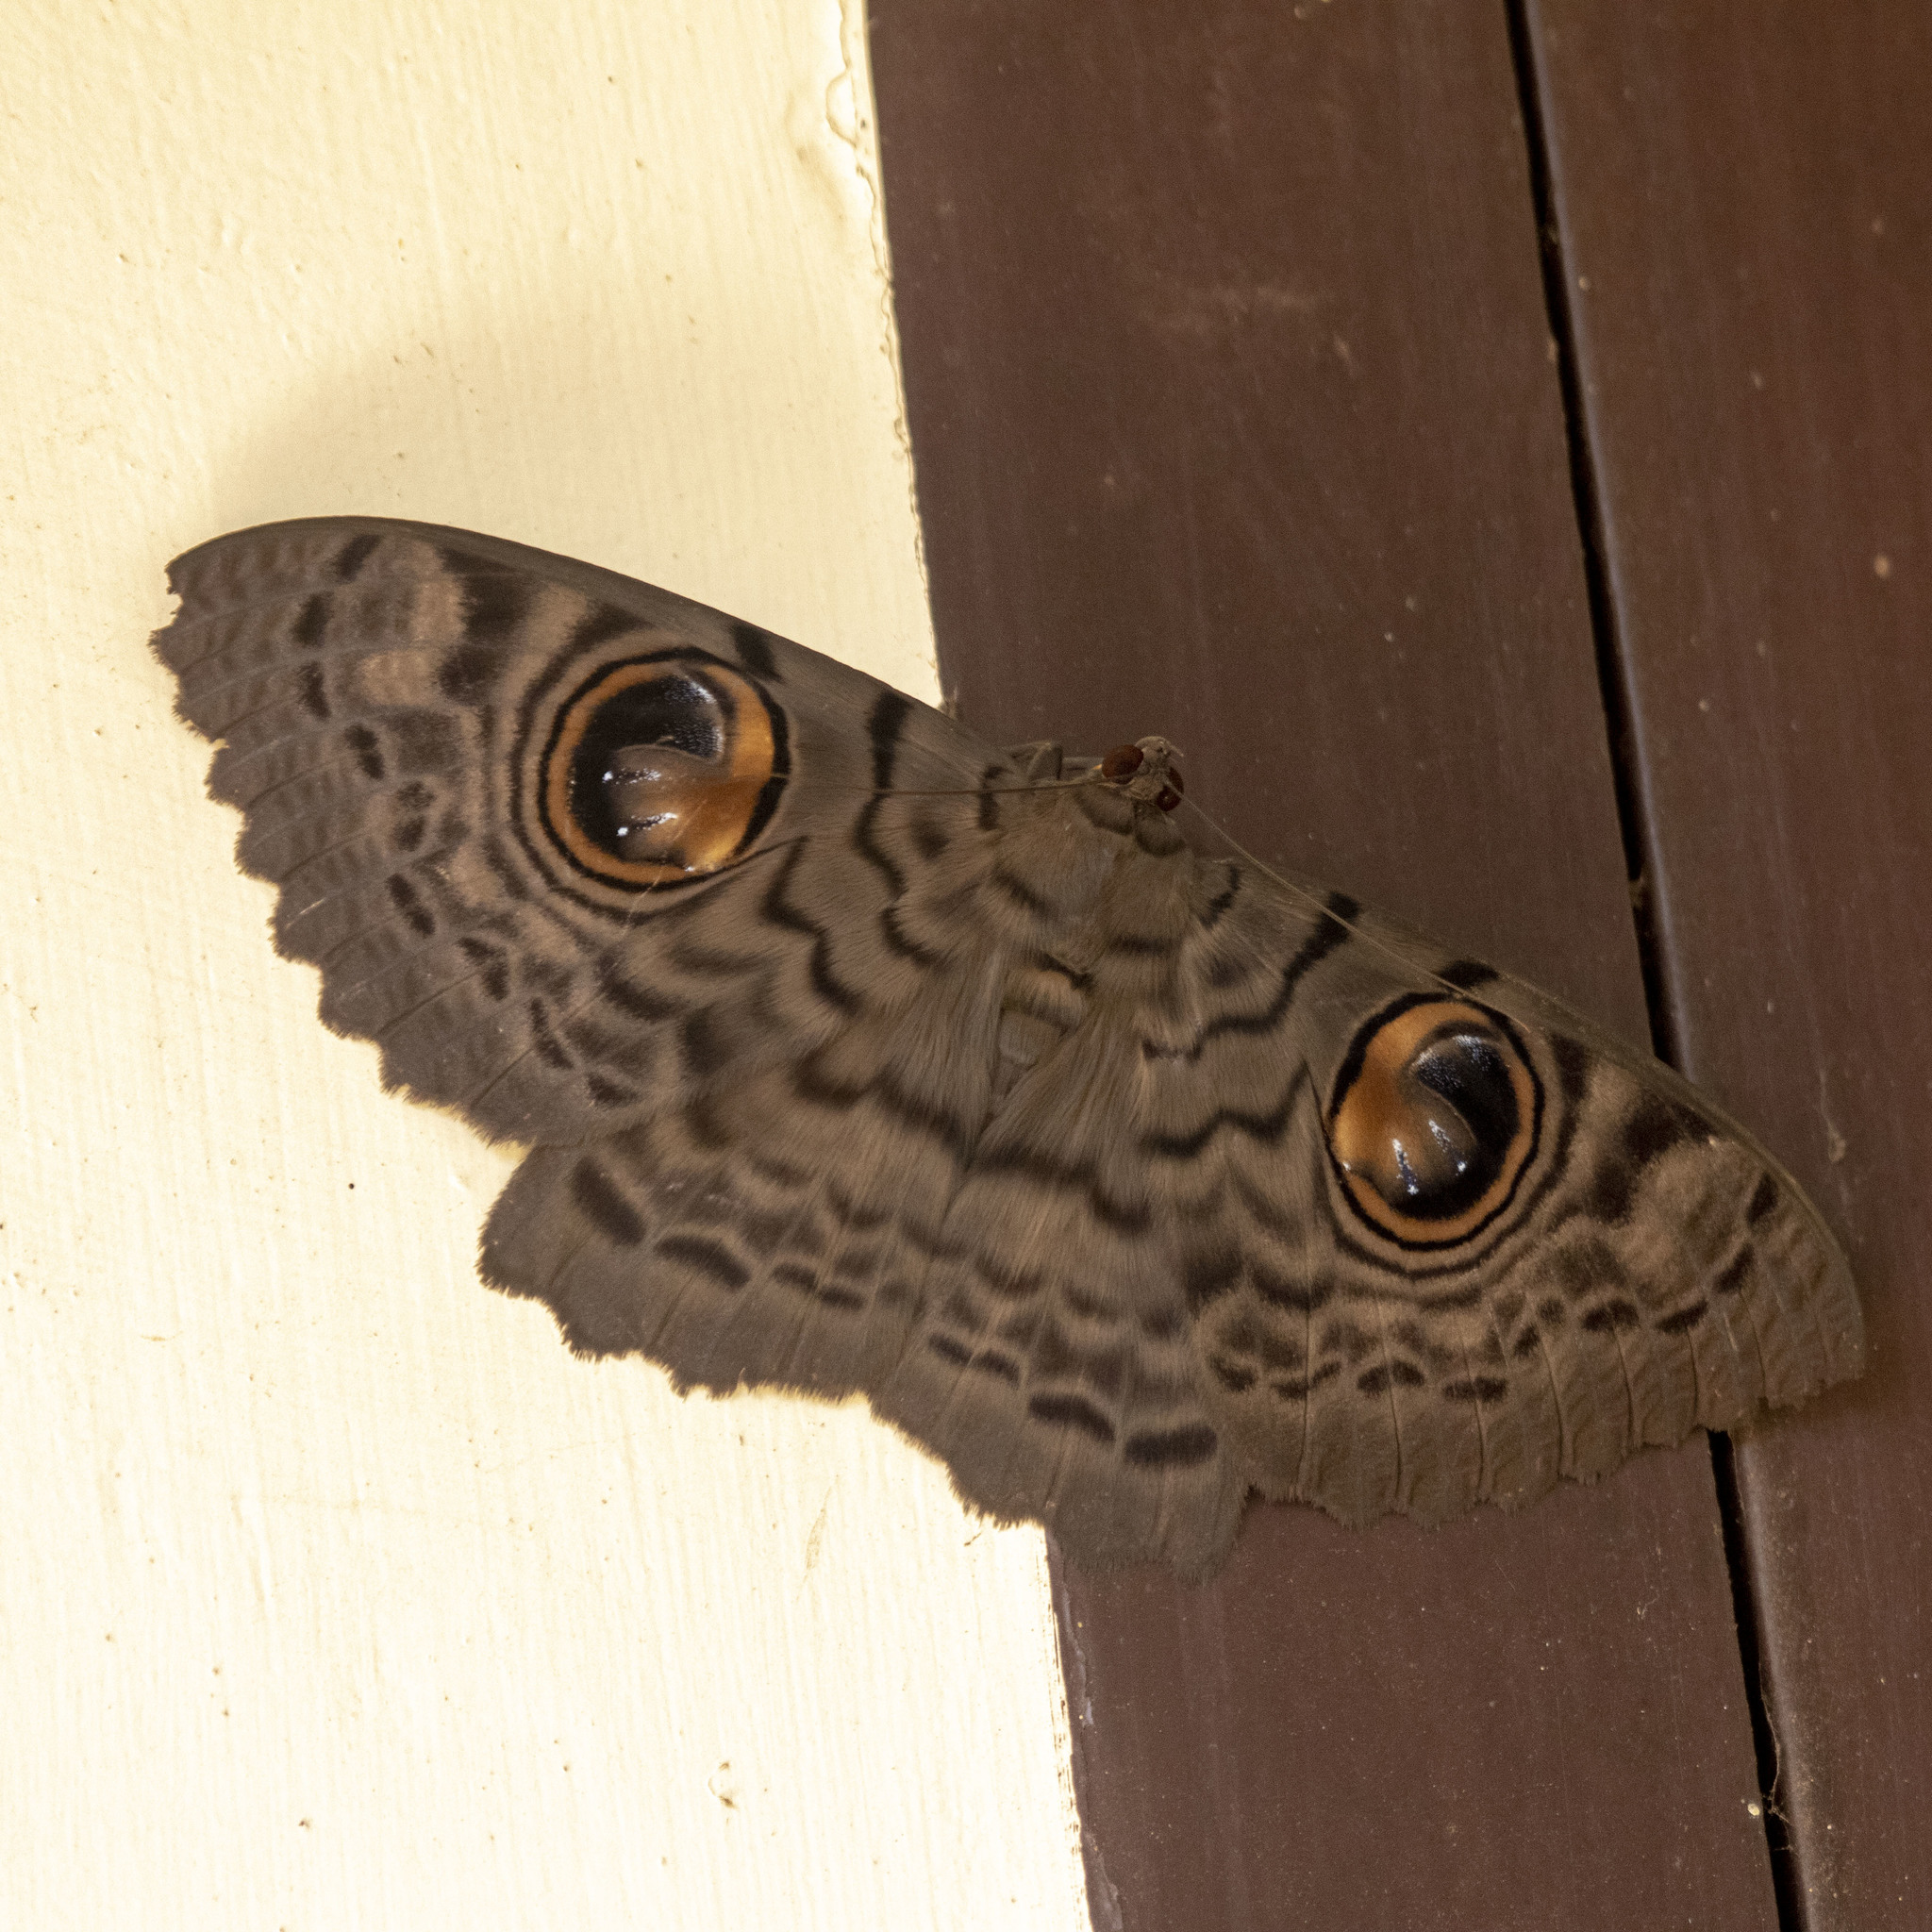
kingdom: Animalia
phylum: Arthropoda
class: Insecta
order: Lepidoptera
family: Erebidae
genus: Erebus
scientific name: Erebus macrops
